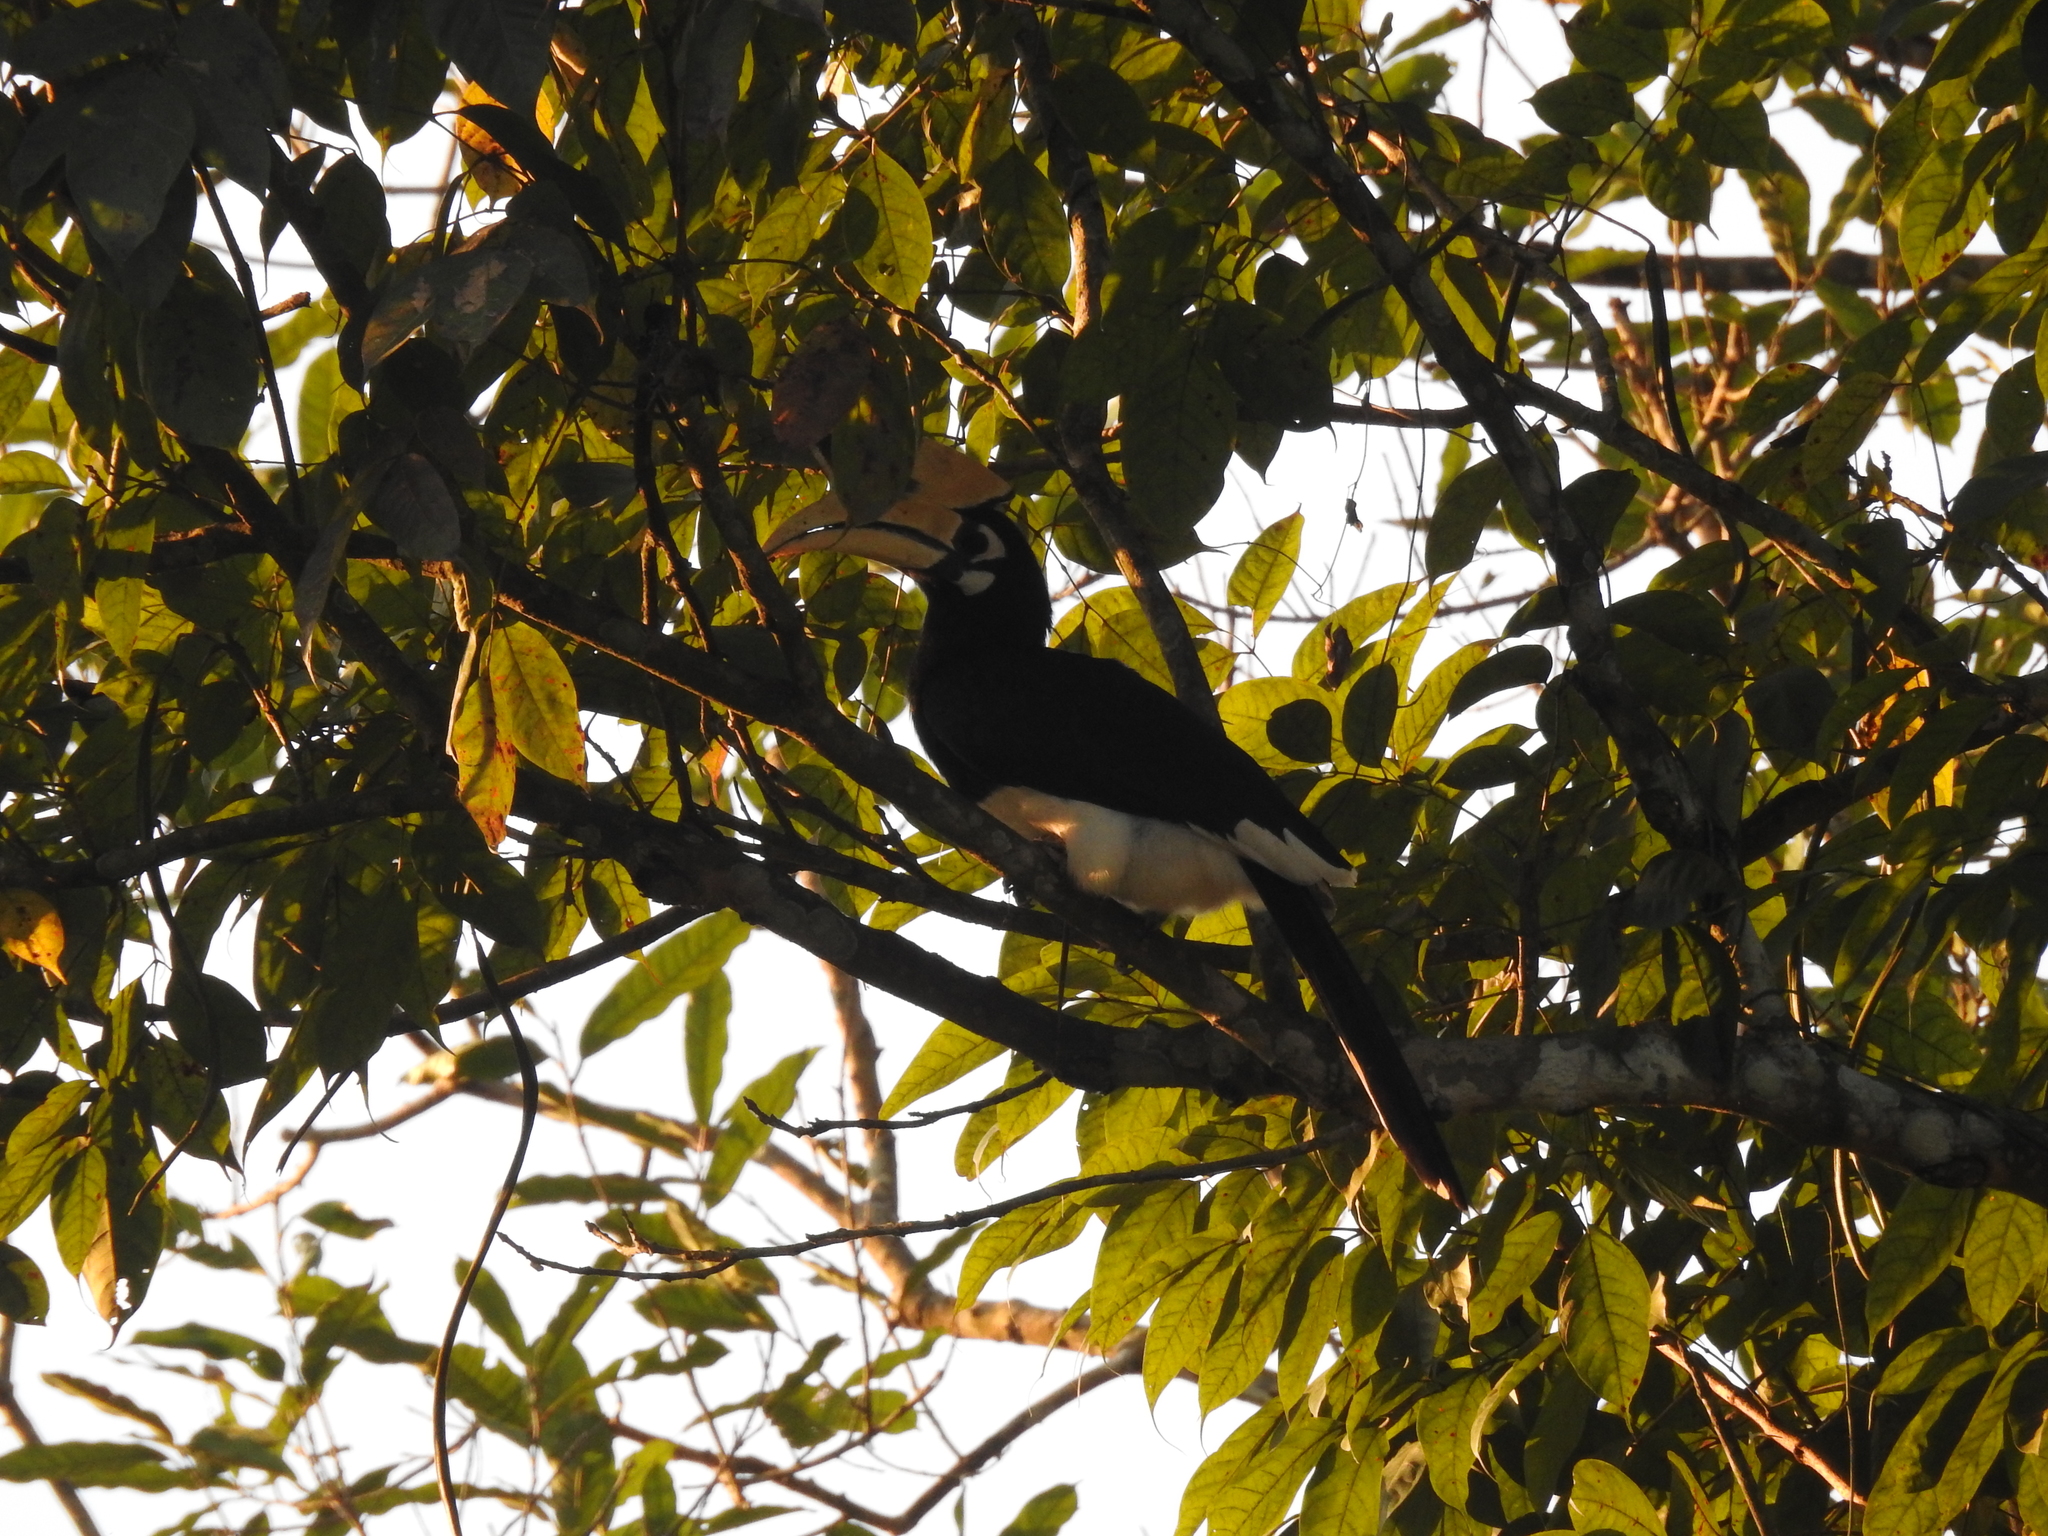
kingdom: Animalia
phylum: Chordata
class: Aves
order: Bucerotiformes
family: Bucerotidae
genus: Anthracoceros
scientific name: Anthracoceros albirostris
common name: Oriental pied-hornbill
